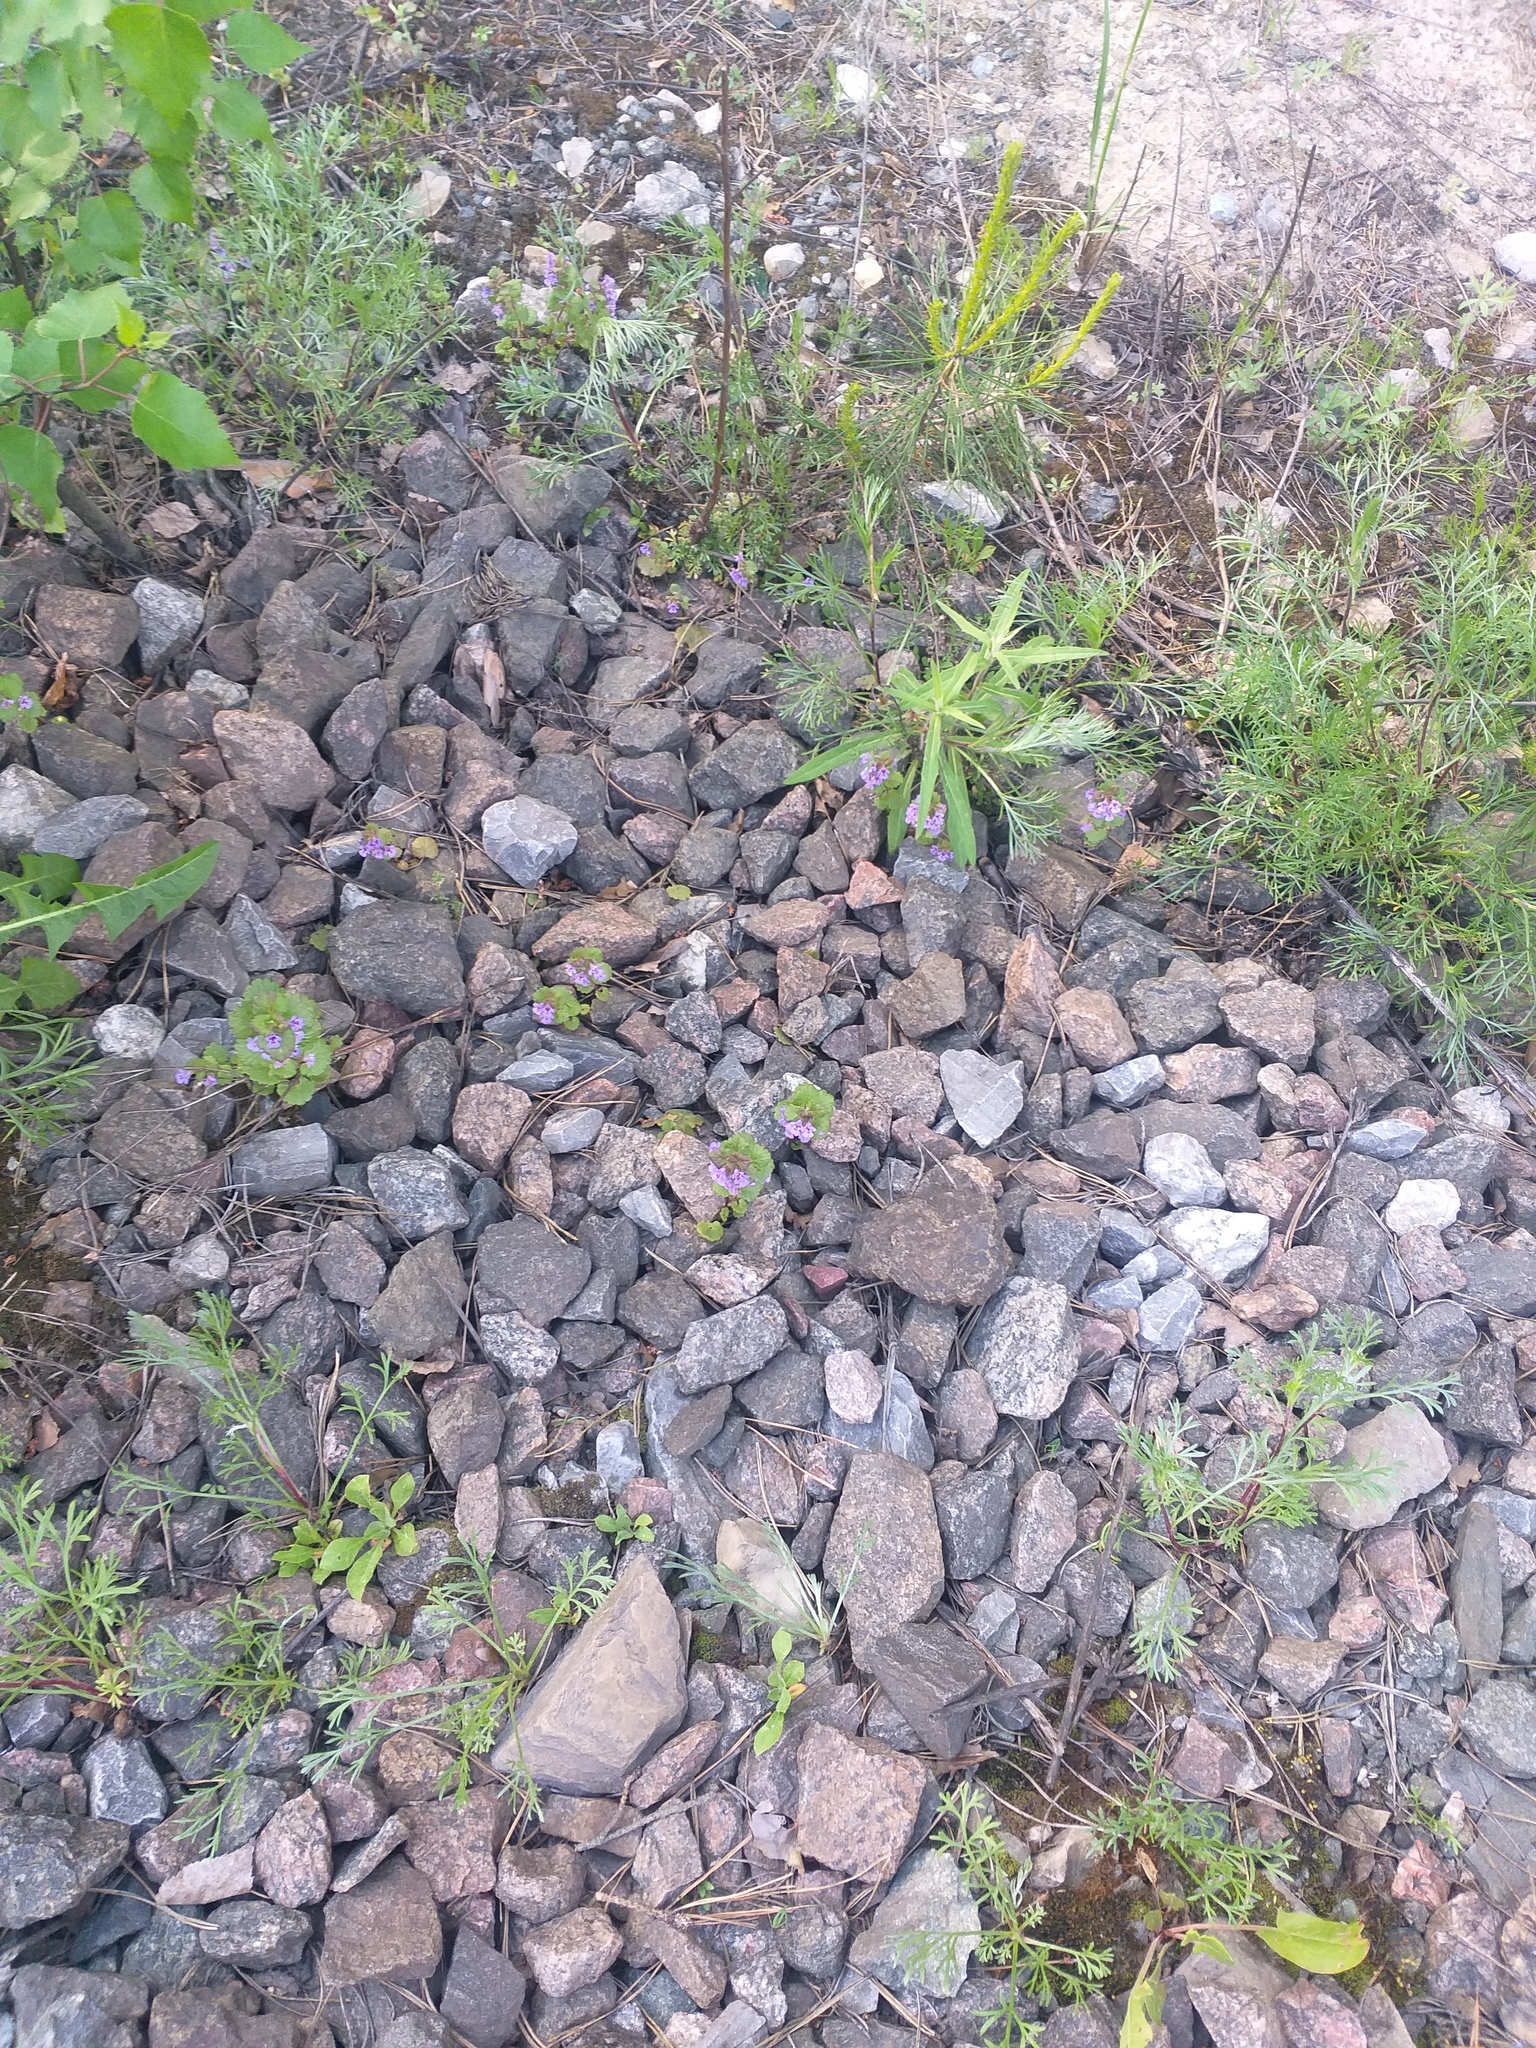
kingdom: Plantae
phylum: Tracheophyta
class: Magnoliopsida
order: Lamiales
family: Lamiaceae
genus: Glechoma
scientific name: Glechoma hederacea
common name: Ground ivy
